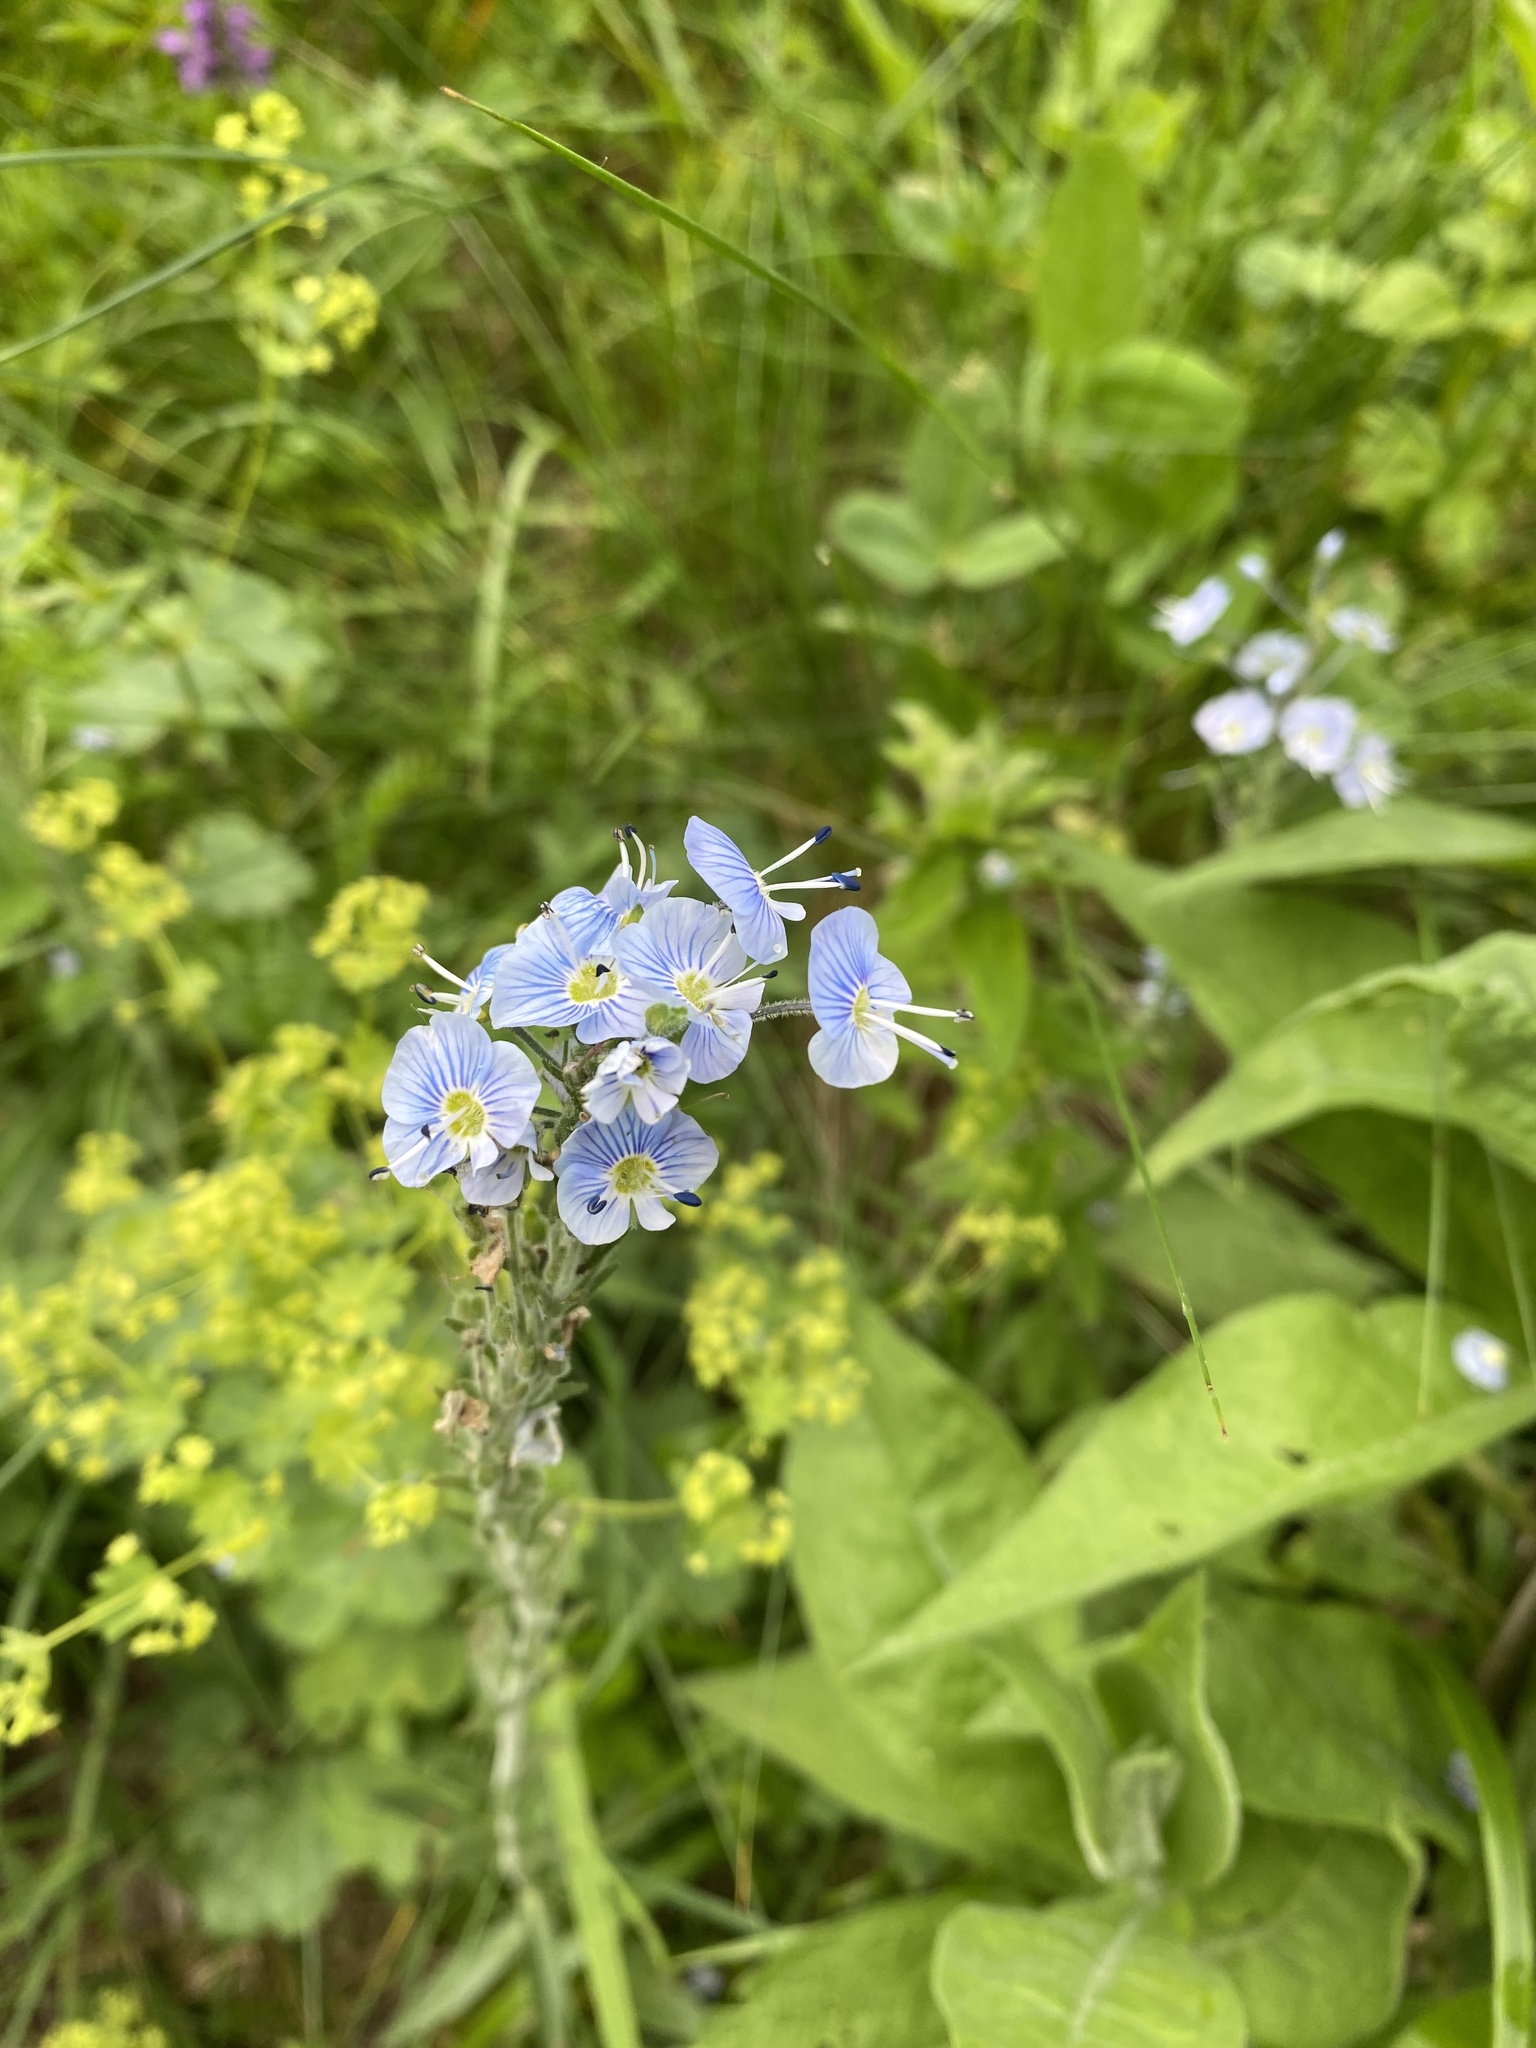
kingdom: Plantae
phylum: Tracheophyta
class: Magnoliopsida
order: Lamiales
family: Plantaginaceae
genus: Veronica
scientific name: Veronica gentianoides
